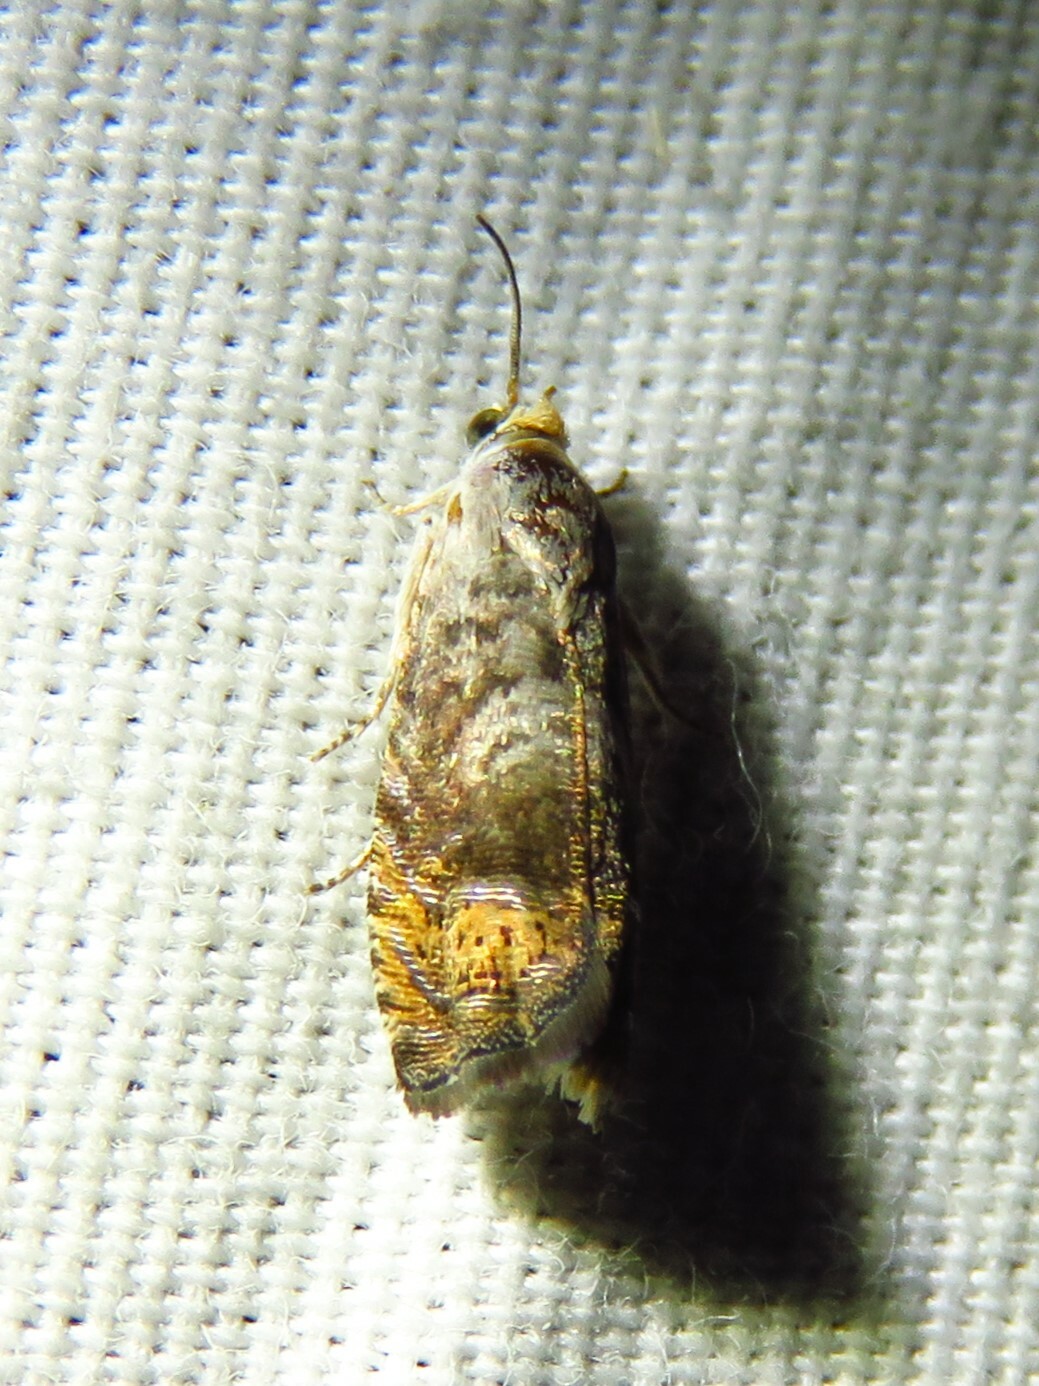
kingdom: Animalia
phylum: Arthropoda
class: Insecta
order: Lepidoptera
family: Tortricidae
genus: Ofatulena
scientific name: Ofatulena luminosa
